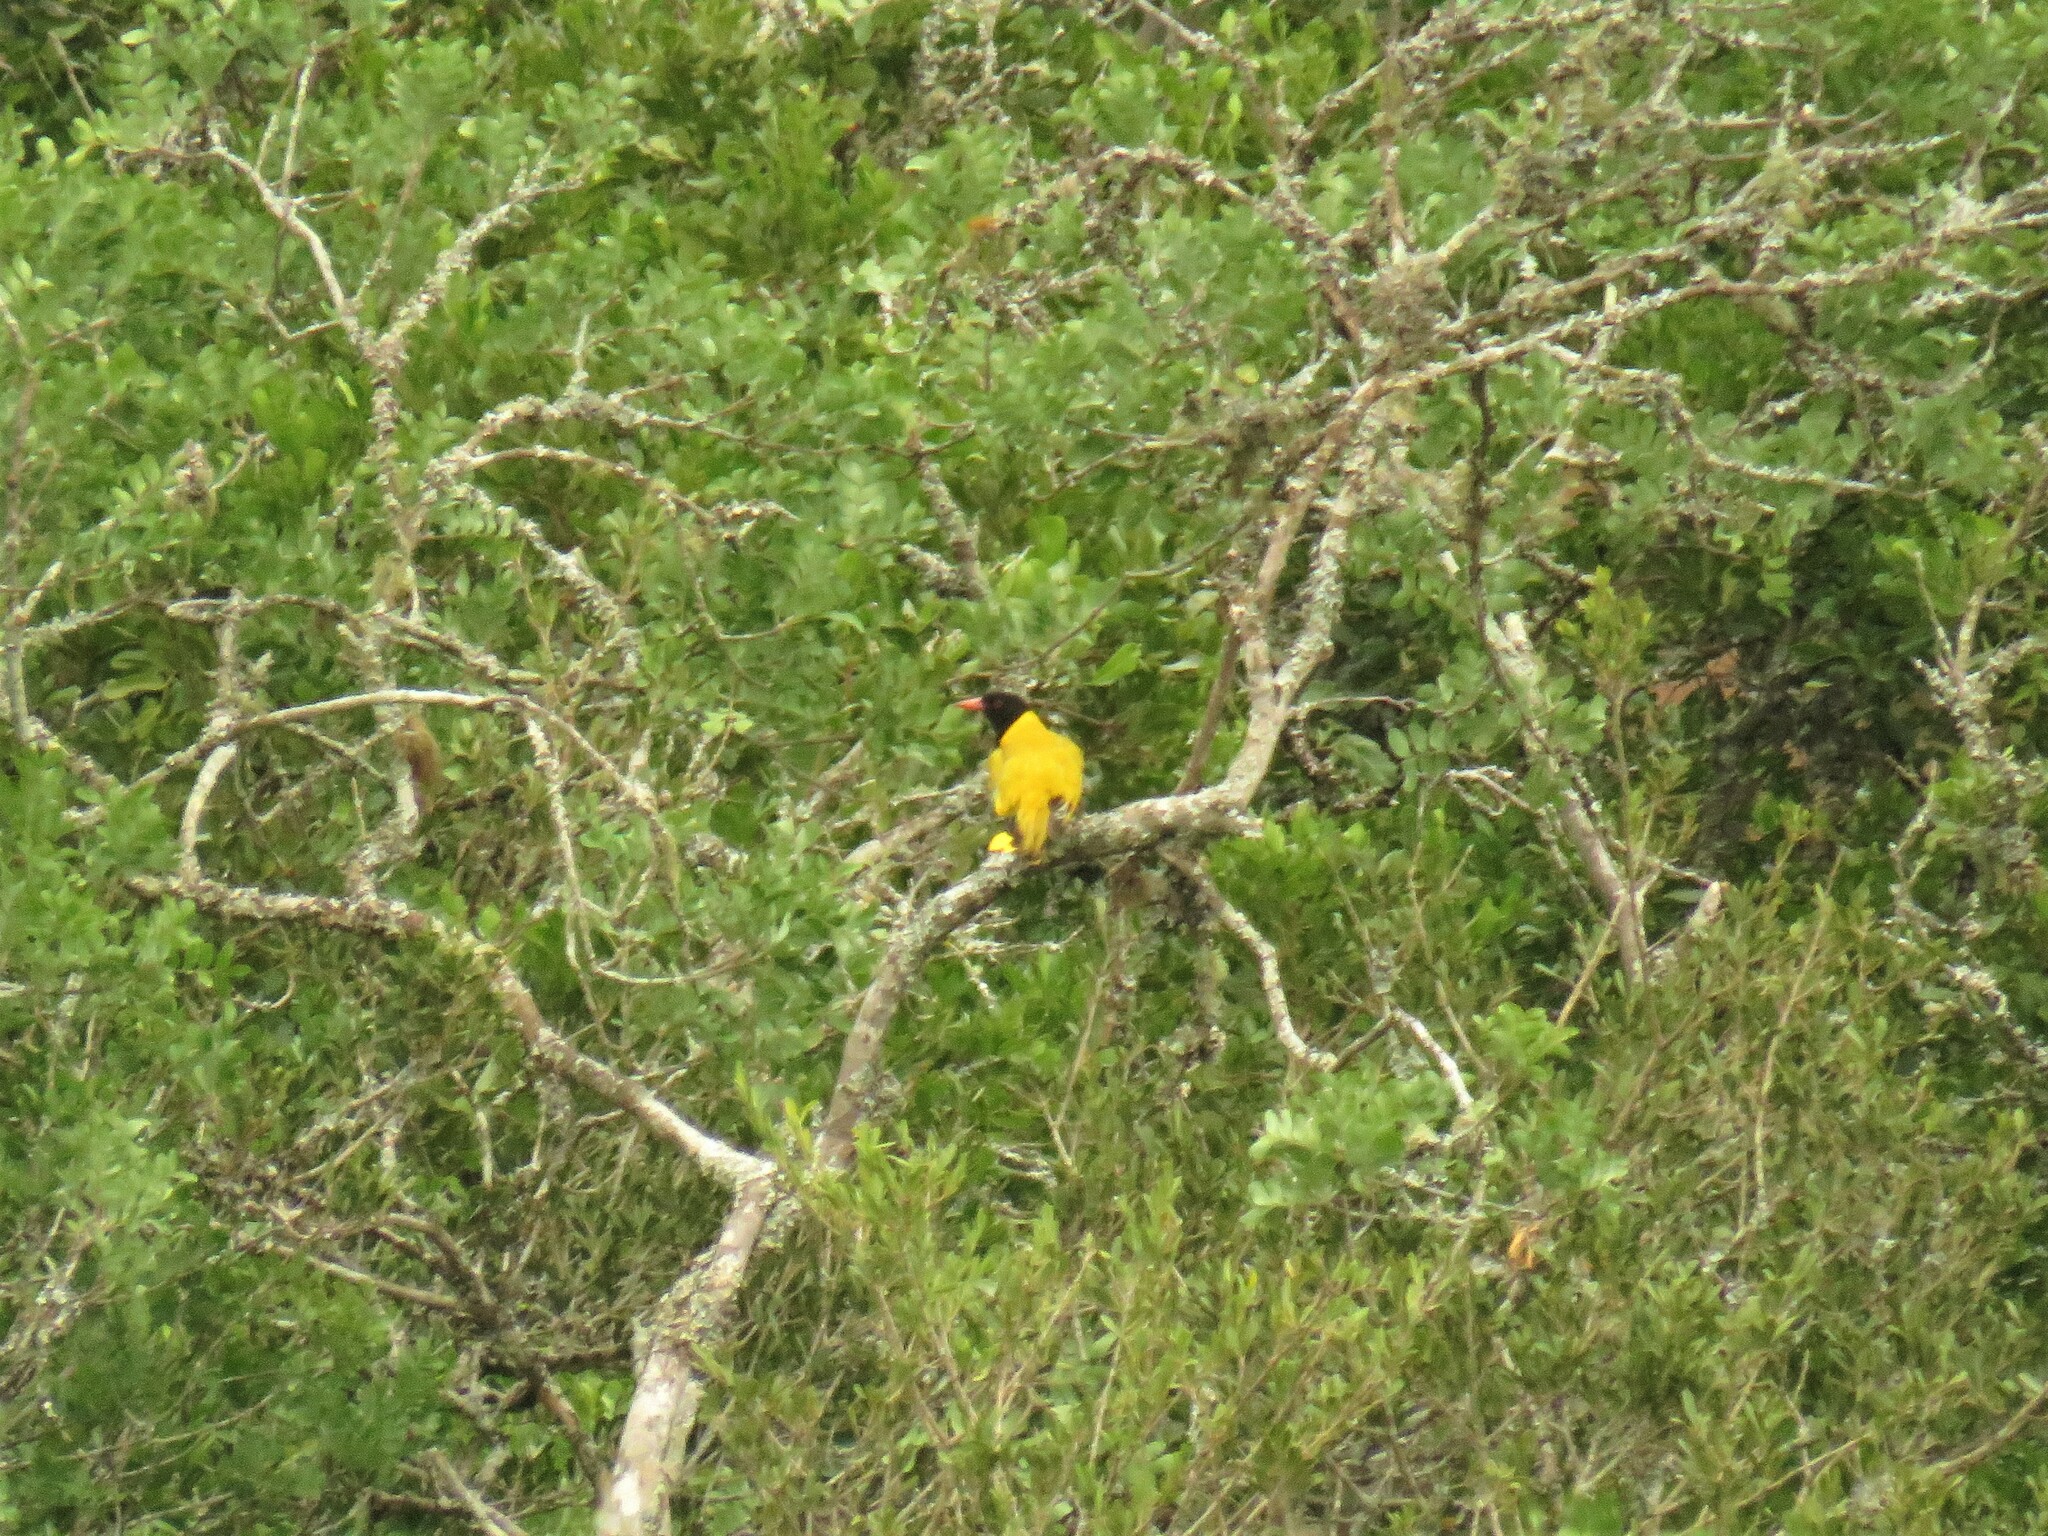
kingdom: Animalia
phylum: Chordata
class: Aves
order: Passeriformes
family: Oriolidae
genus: Oriolus
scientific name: Oriolus larvatus
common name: Black-headed oriole
